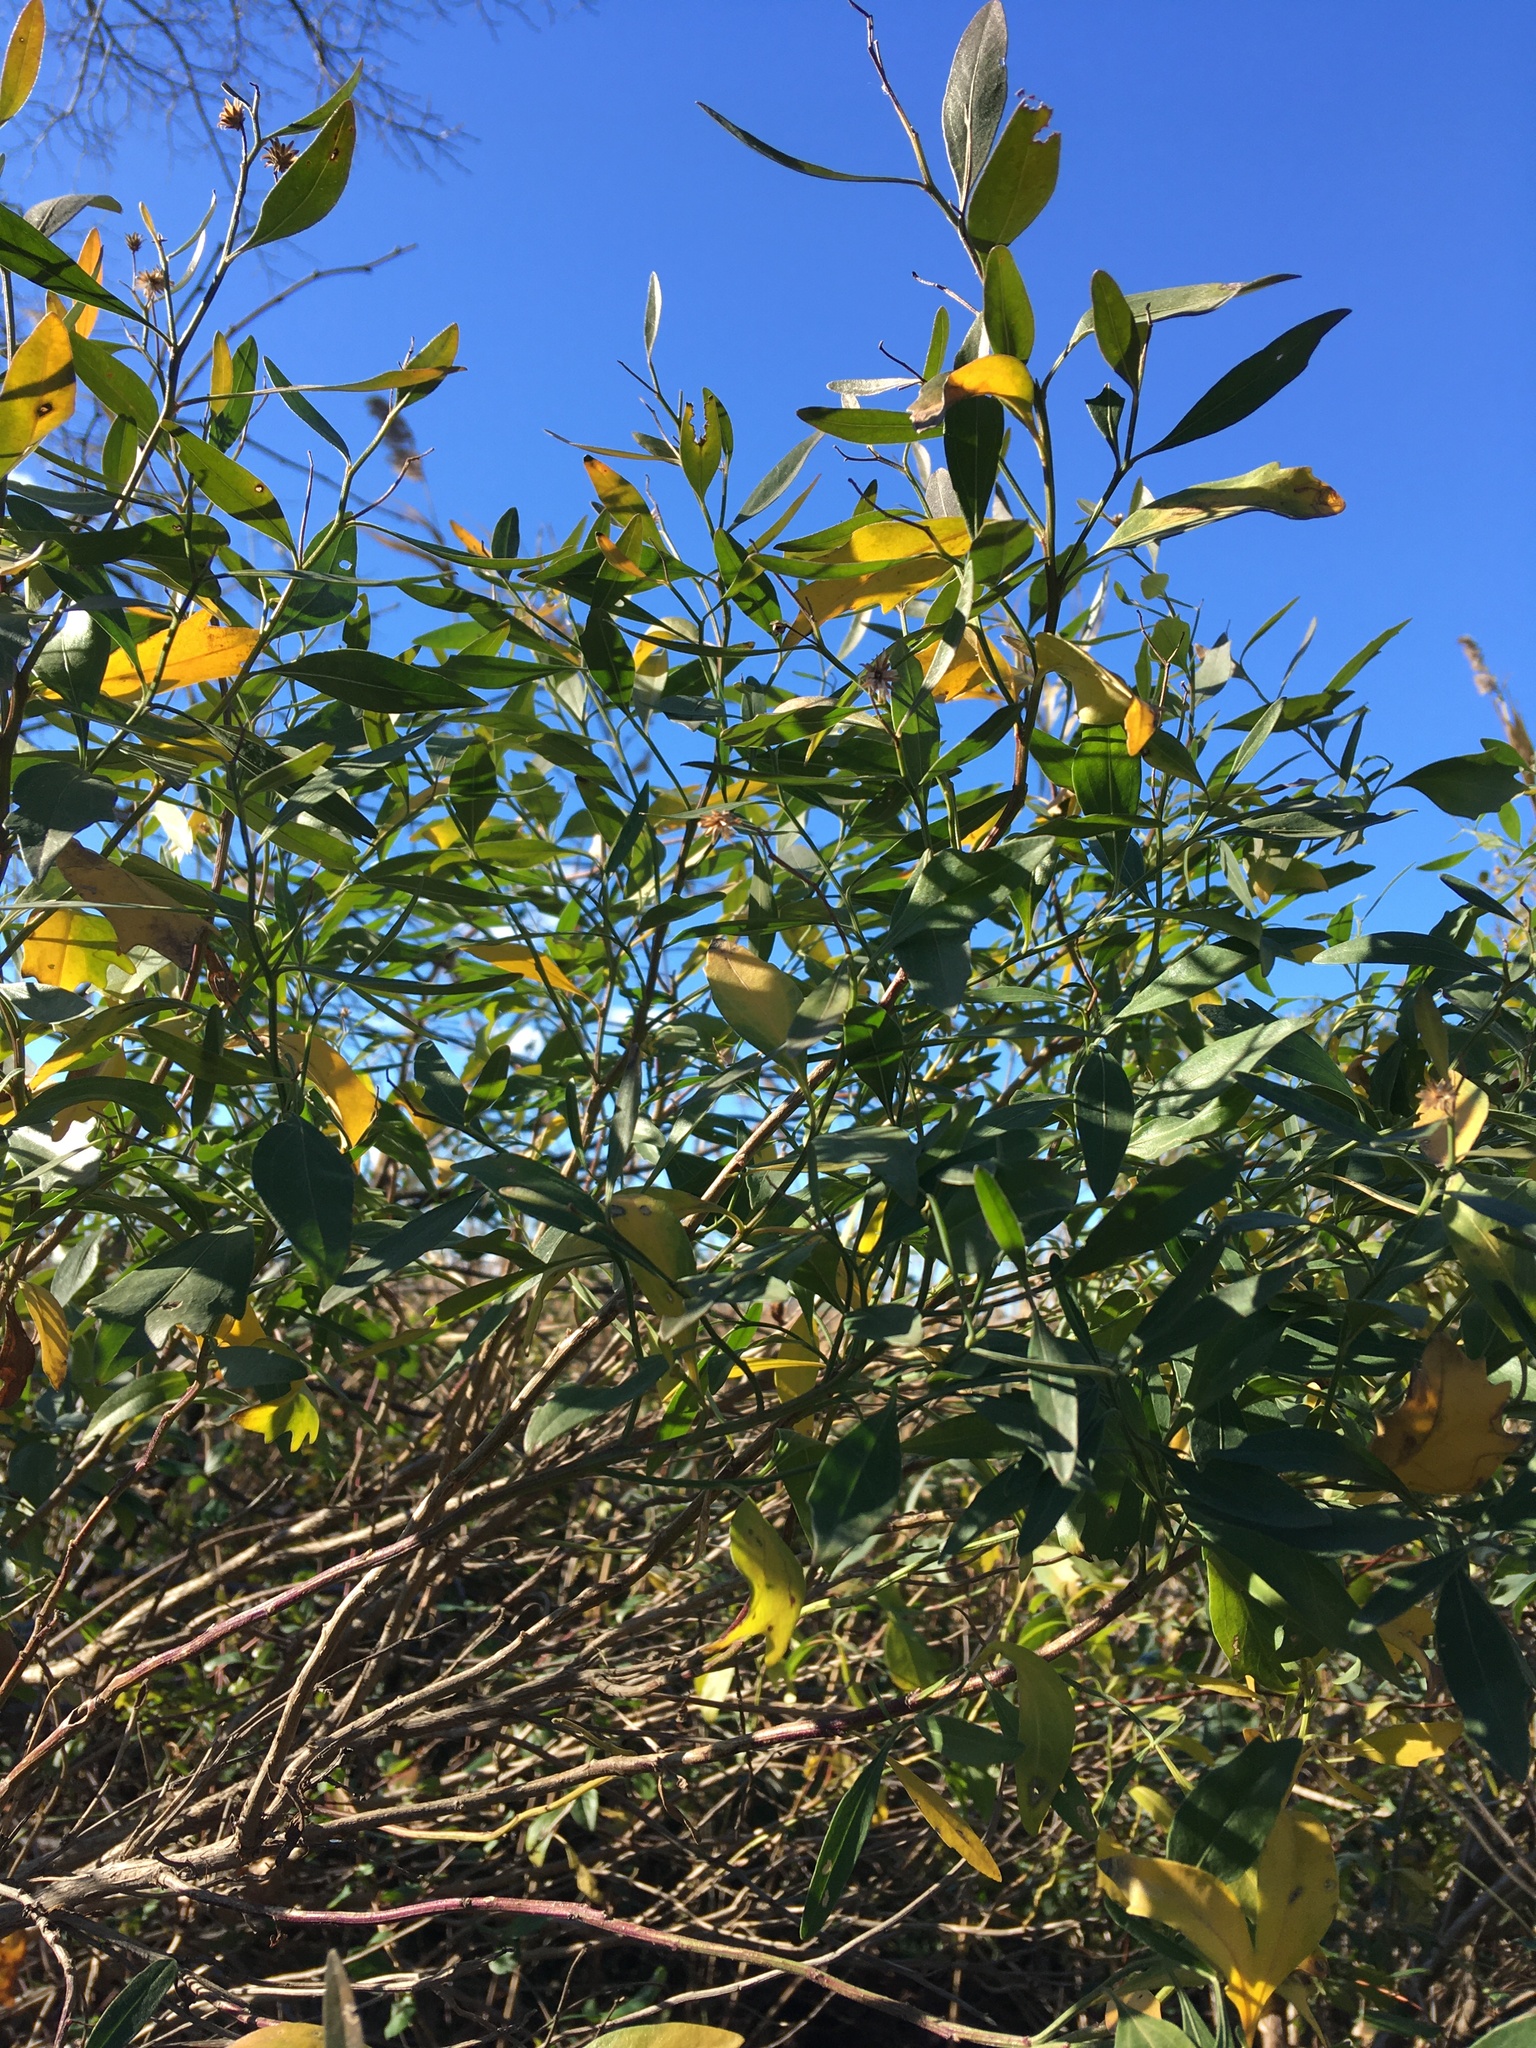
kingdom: Plantae
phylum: Tracheophyta
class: Magnoliopsida
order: Asterales
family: Asteraceae
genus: Baccharis
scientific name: Baccharis halimifolia
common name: Eastern baccharis
